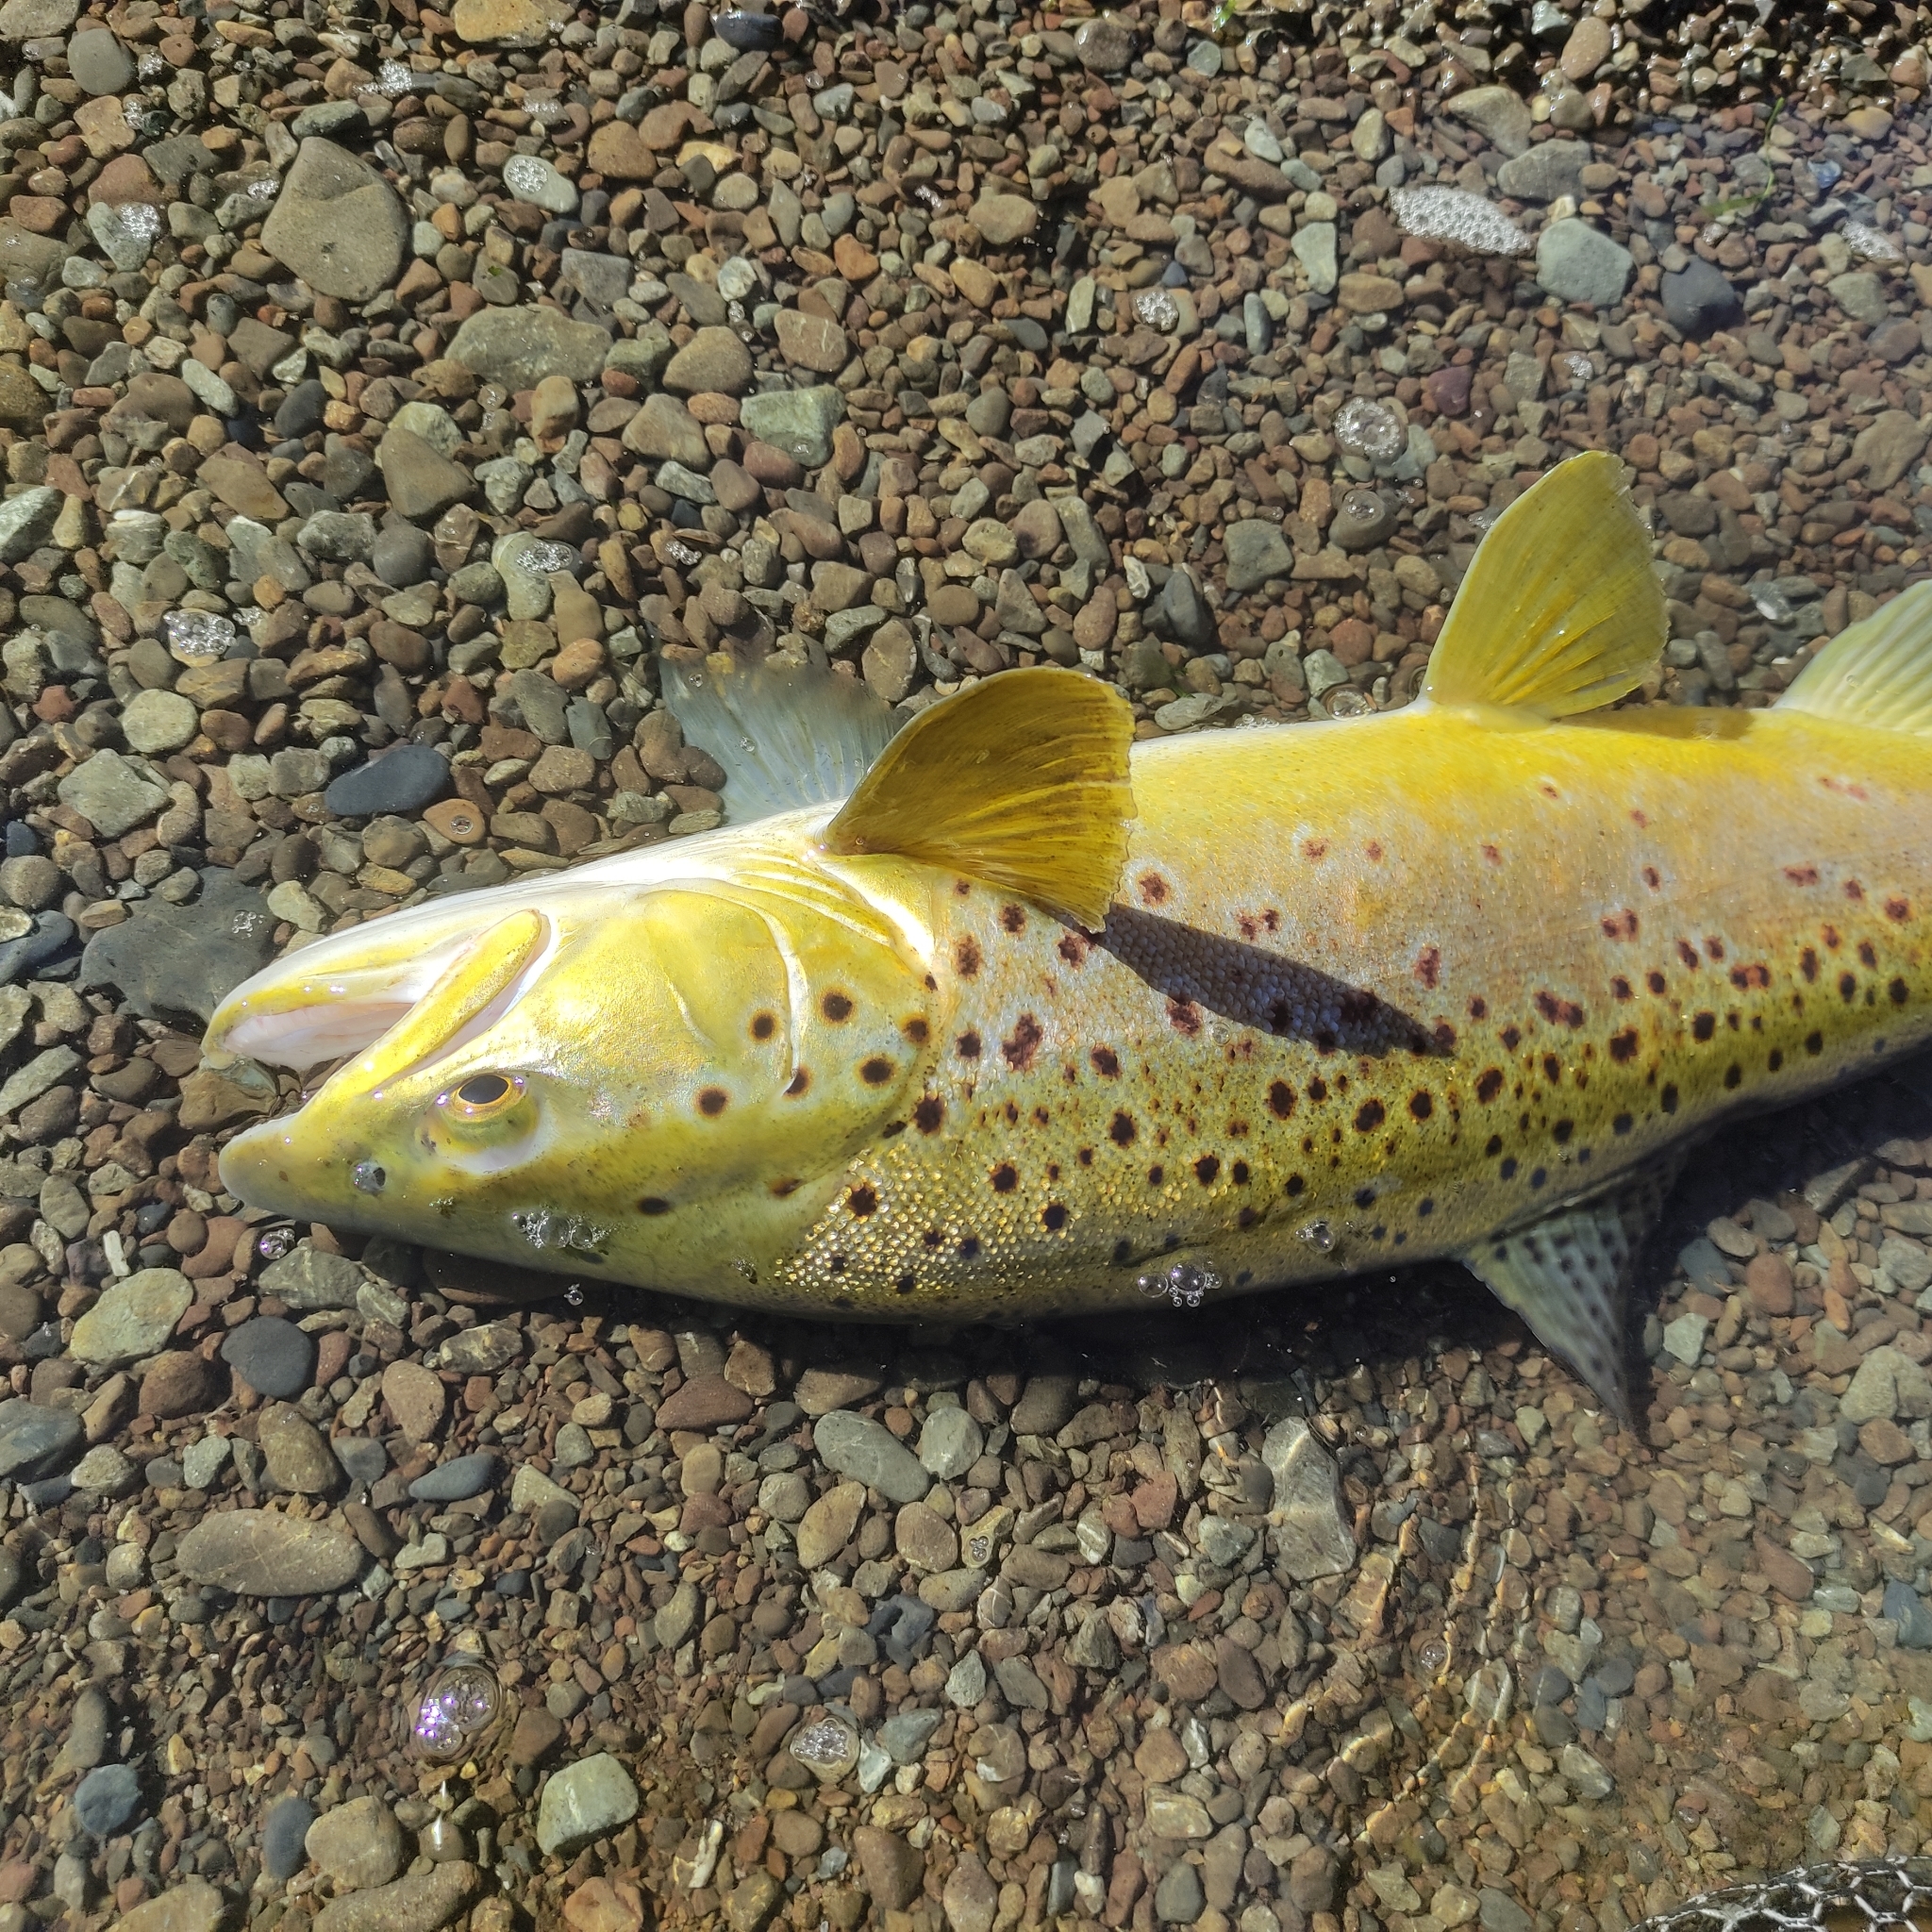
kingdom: Animalia
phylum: Chordata
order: Salmoniformes
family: Salmonidae
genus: Salmo
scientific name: Salmo trutta
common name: Brown trout
